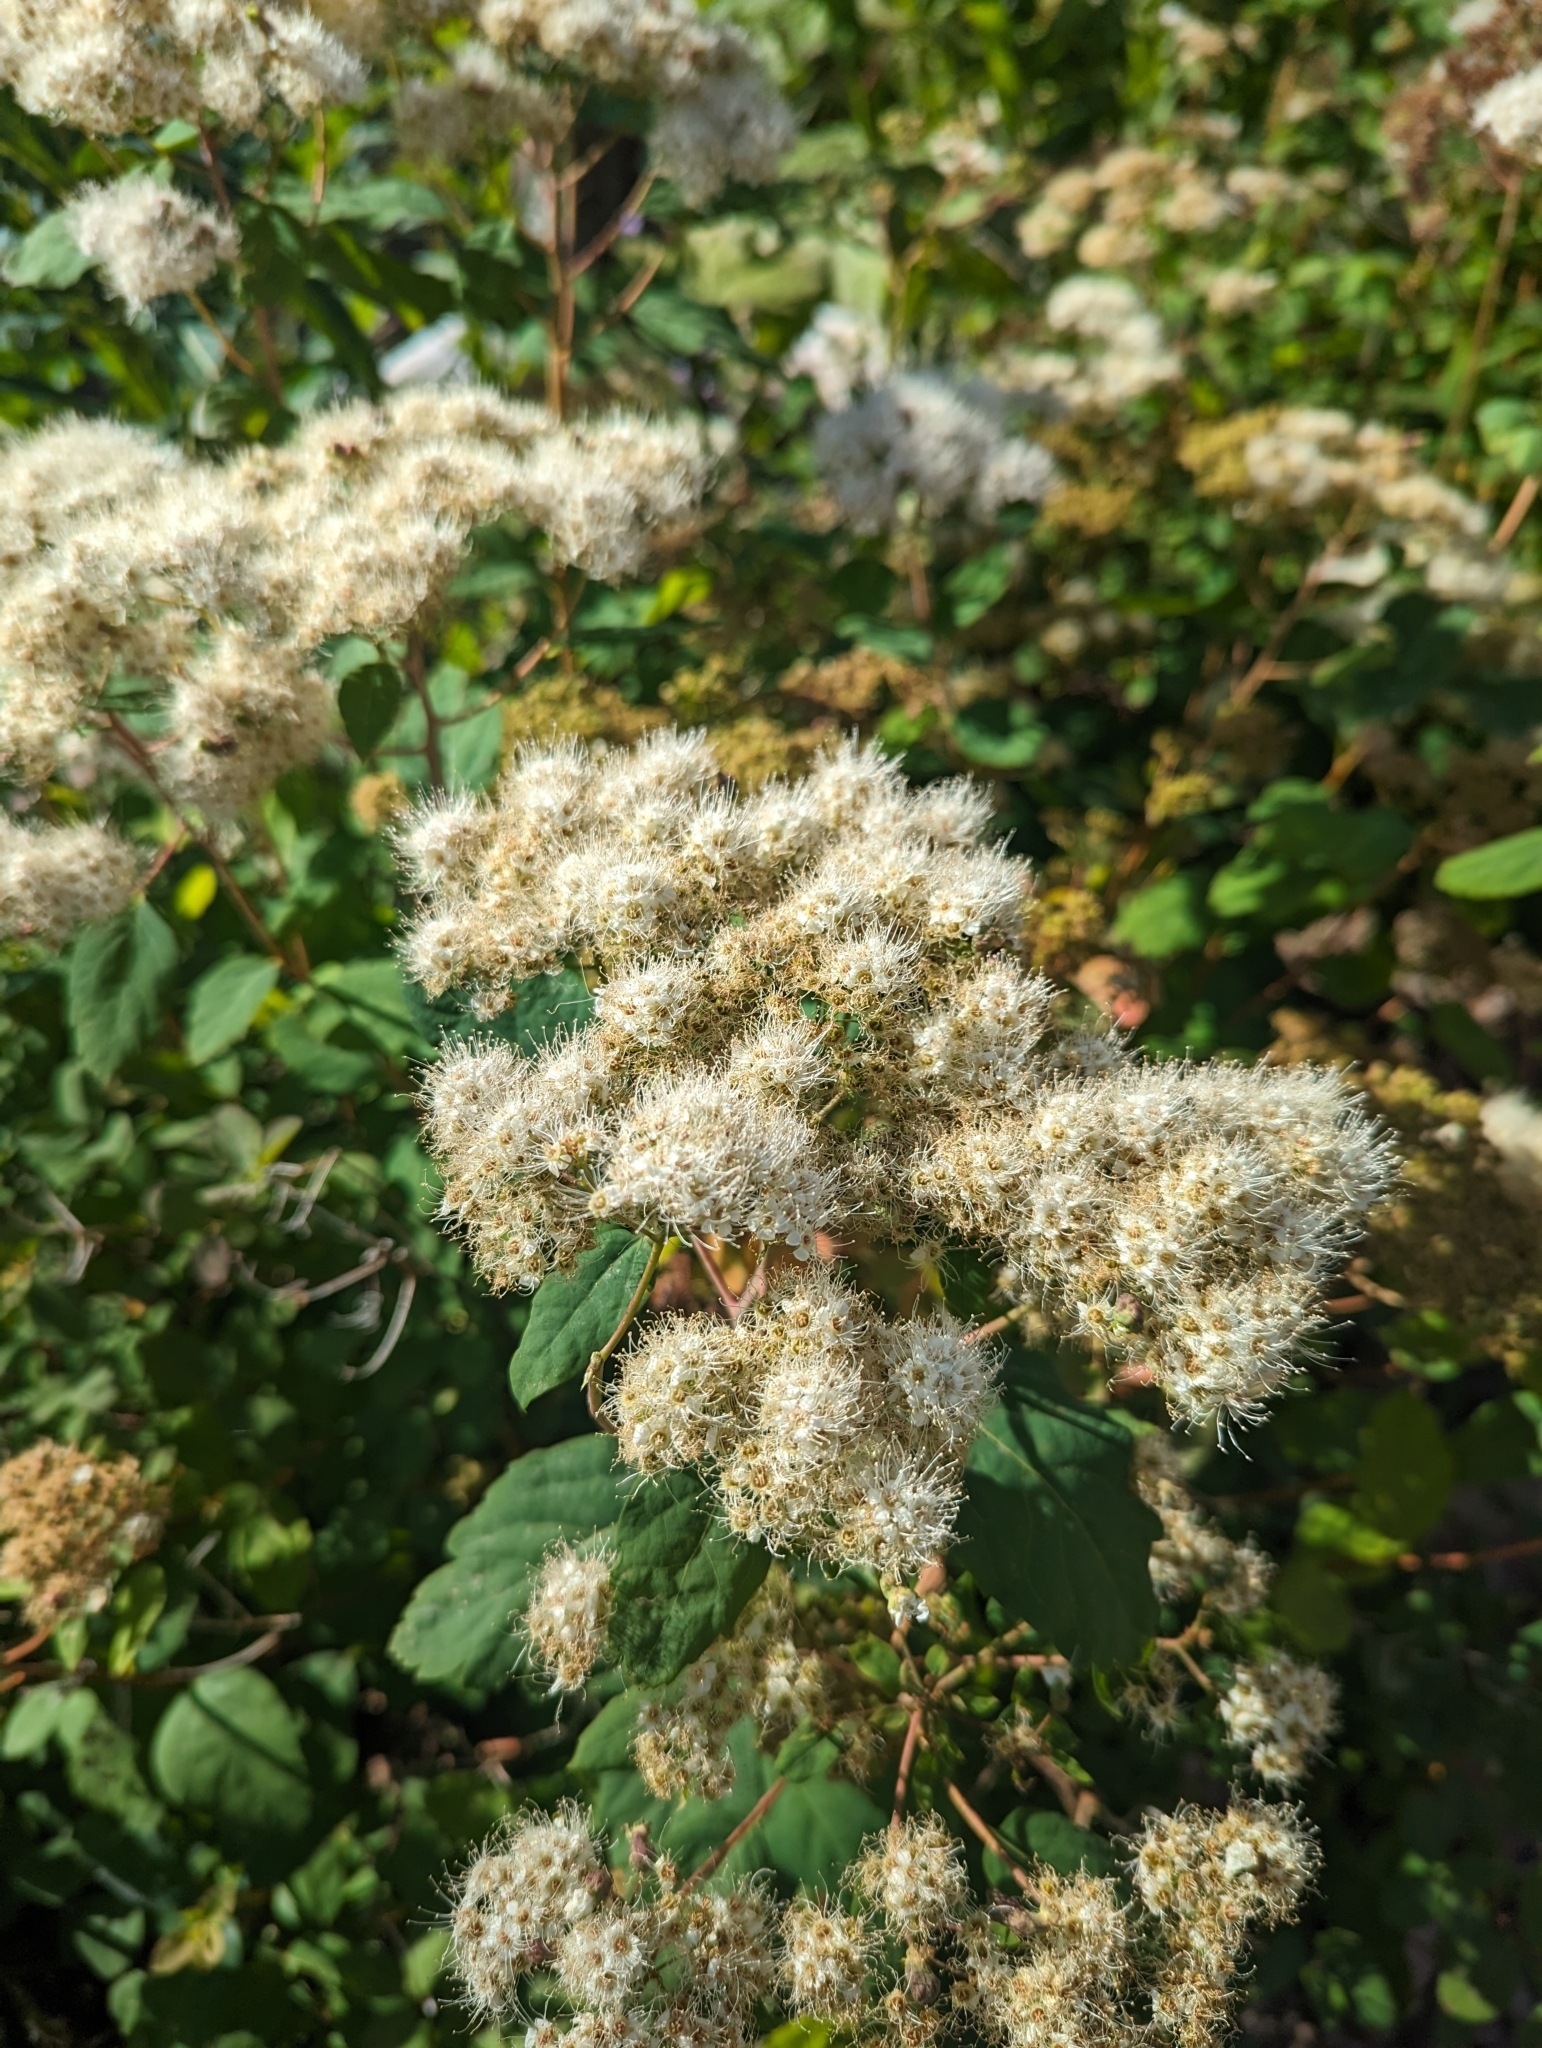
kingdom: Plantae
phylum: Tracheophyta
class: Magnoliopsida
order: Rosales
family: Rosaceae
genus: Spiraea
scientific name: Spiraea lucida
